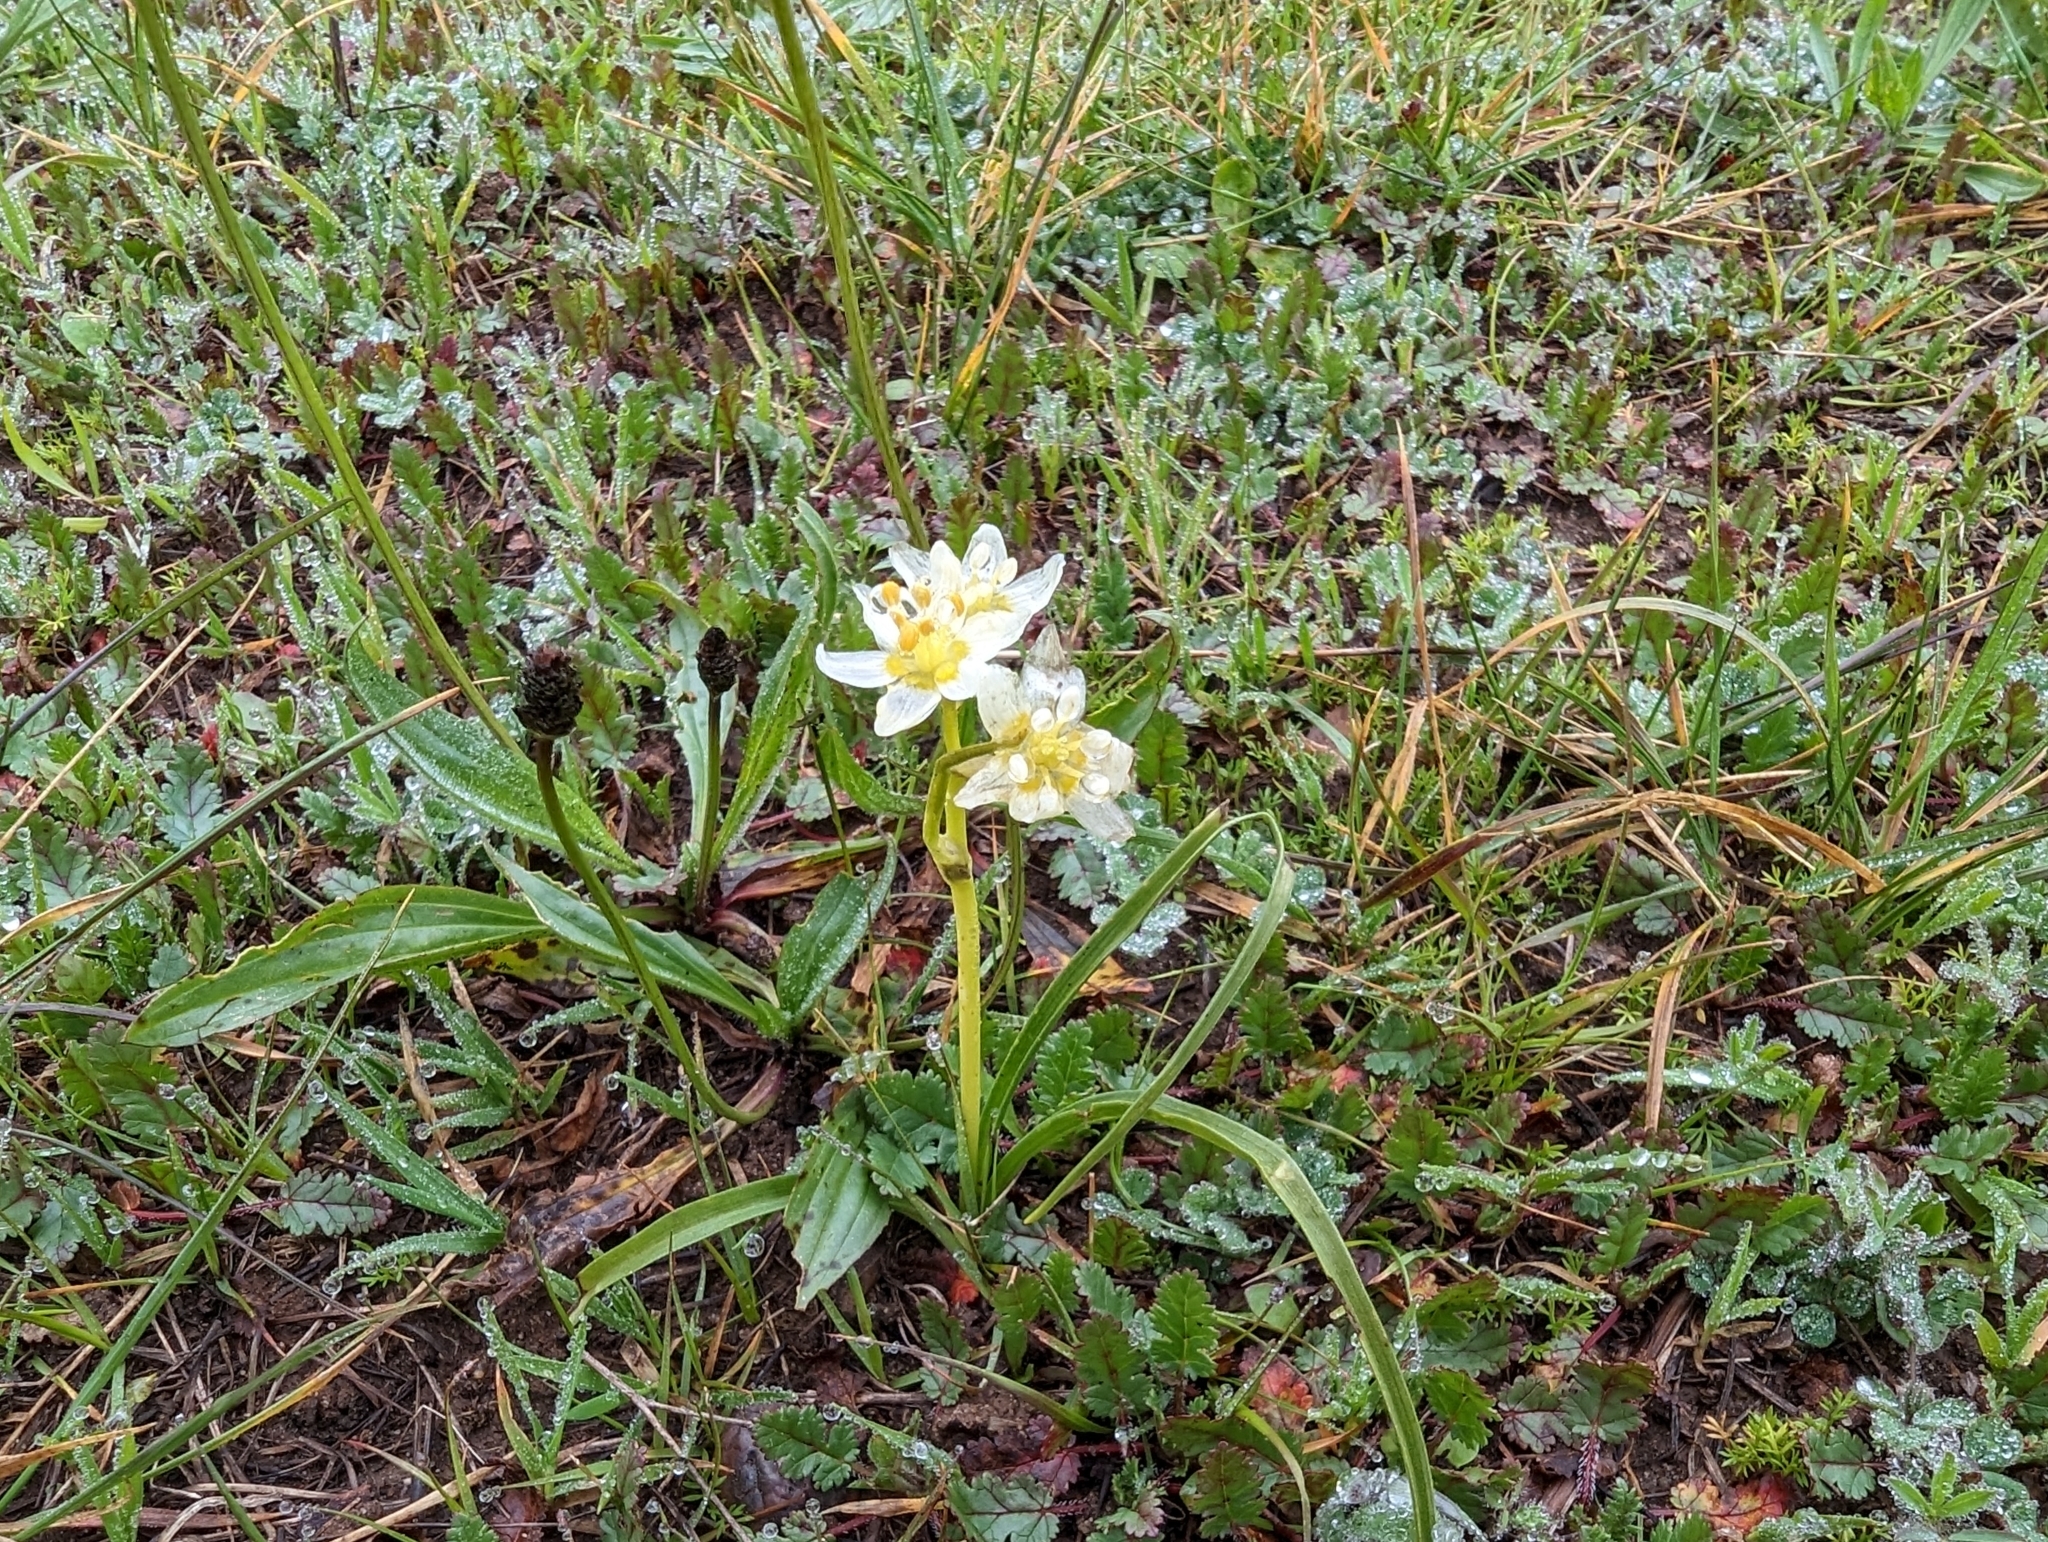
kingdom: Plantae
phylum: Tracheophyta
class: Liliopsida
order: Liliales
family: Melanthiaceae
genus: Toxicoscordion
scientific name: Toxicoscordion fremontii
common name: Fremont's death camas
